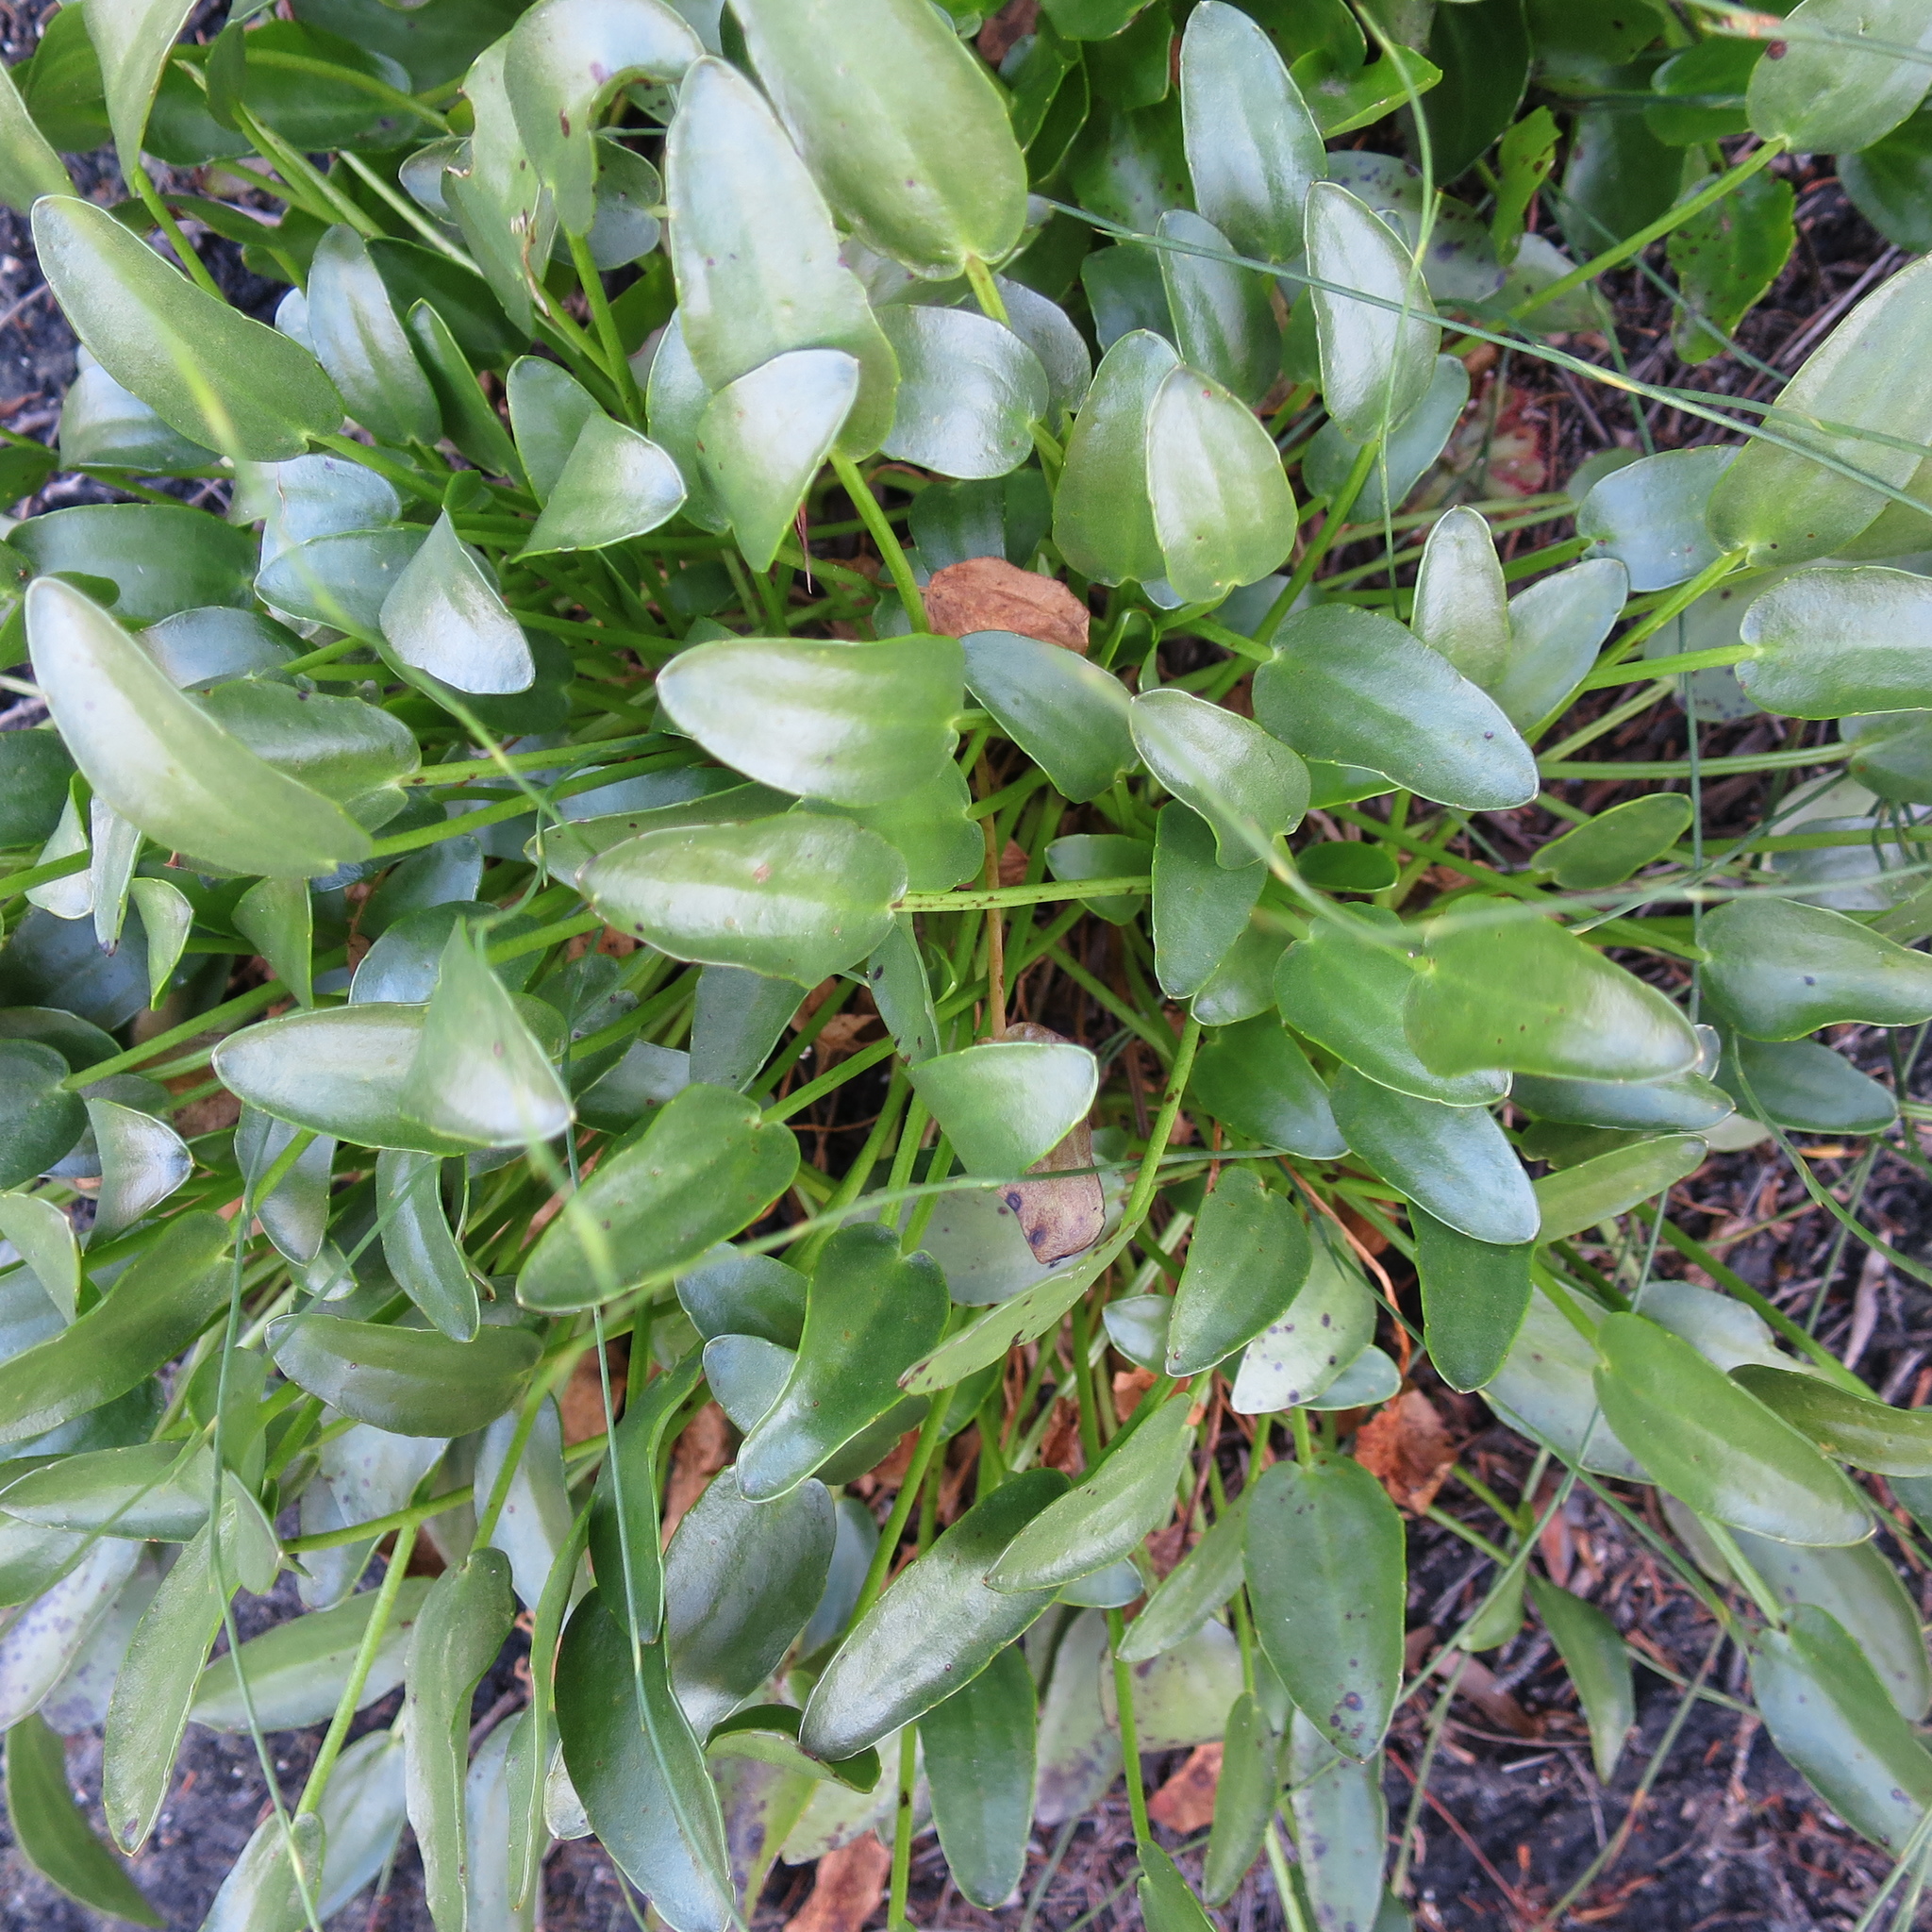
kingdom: Plantae
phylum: Tracheophyta
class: Magnoliopsida
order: Asterales
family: Menyanthaceae
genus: Villarsia
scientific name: Villarsia capensis
